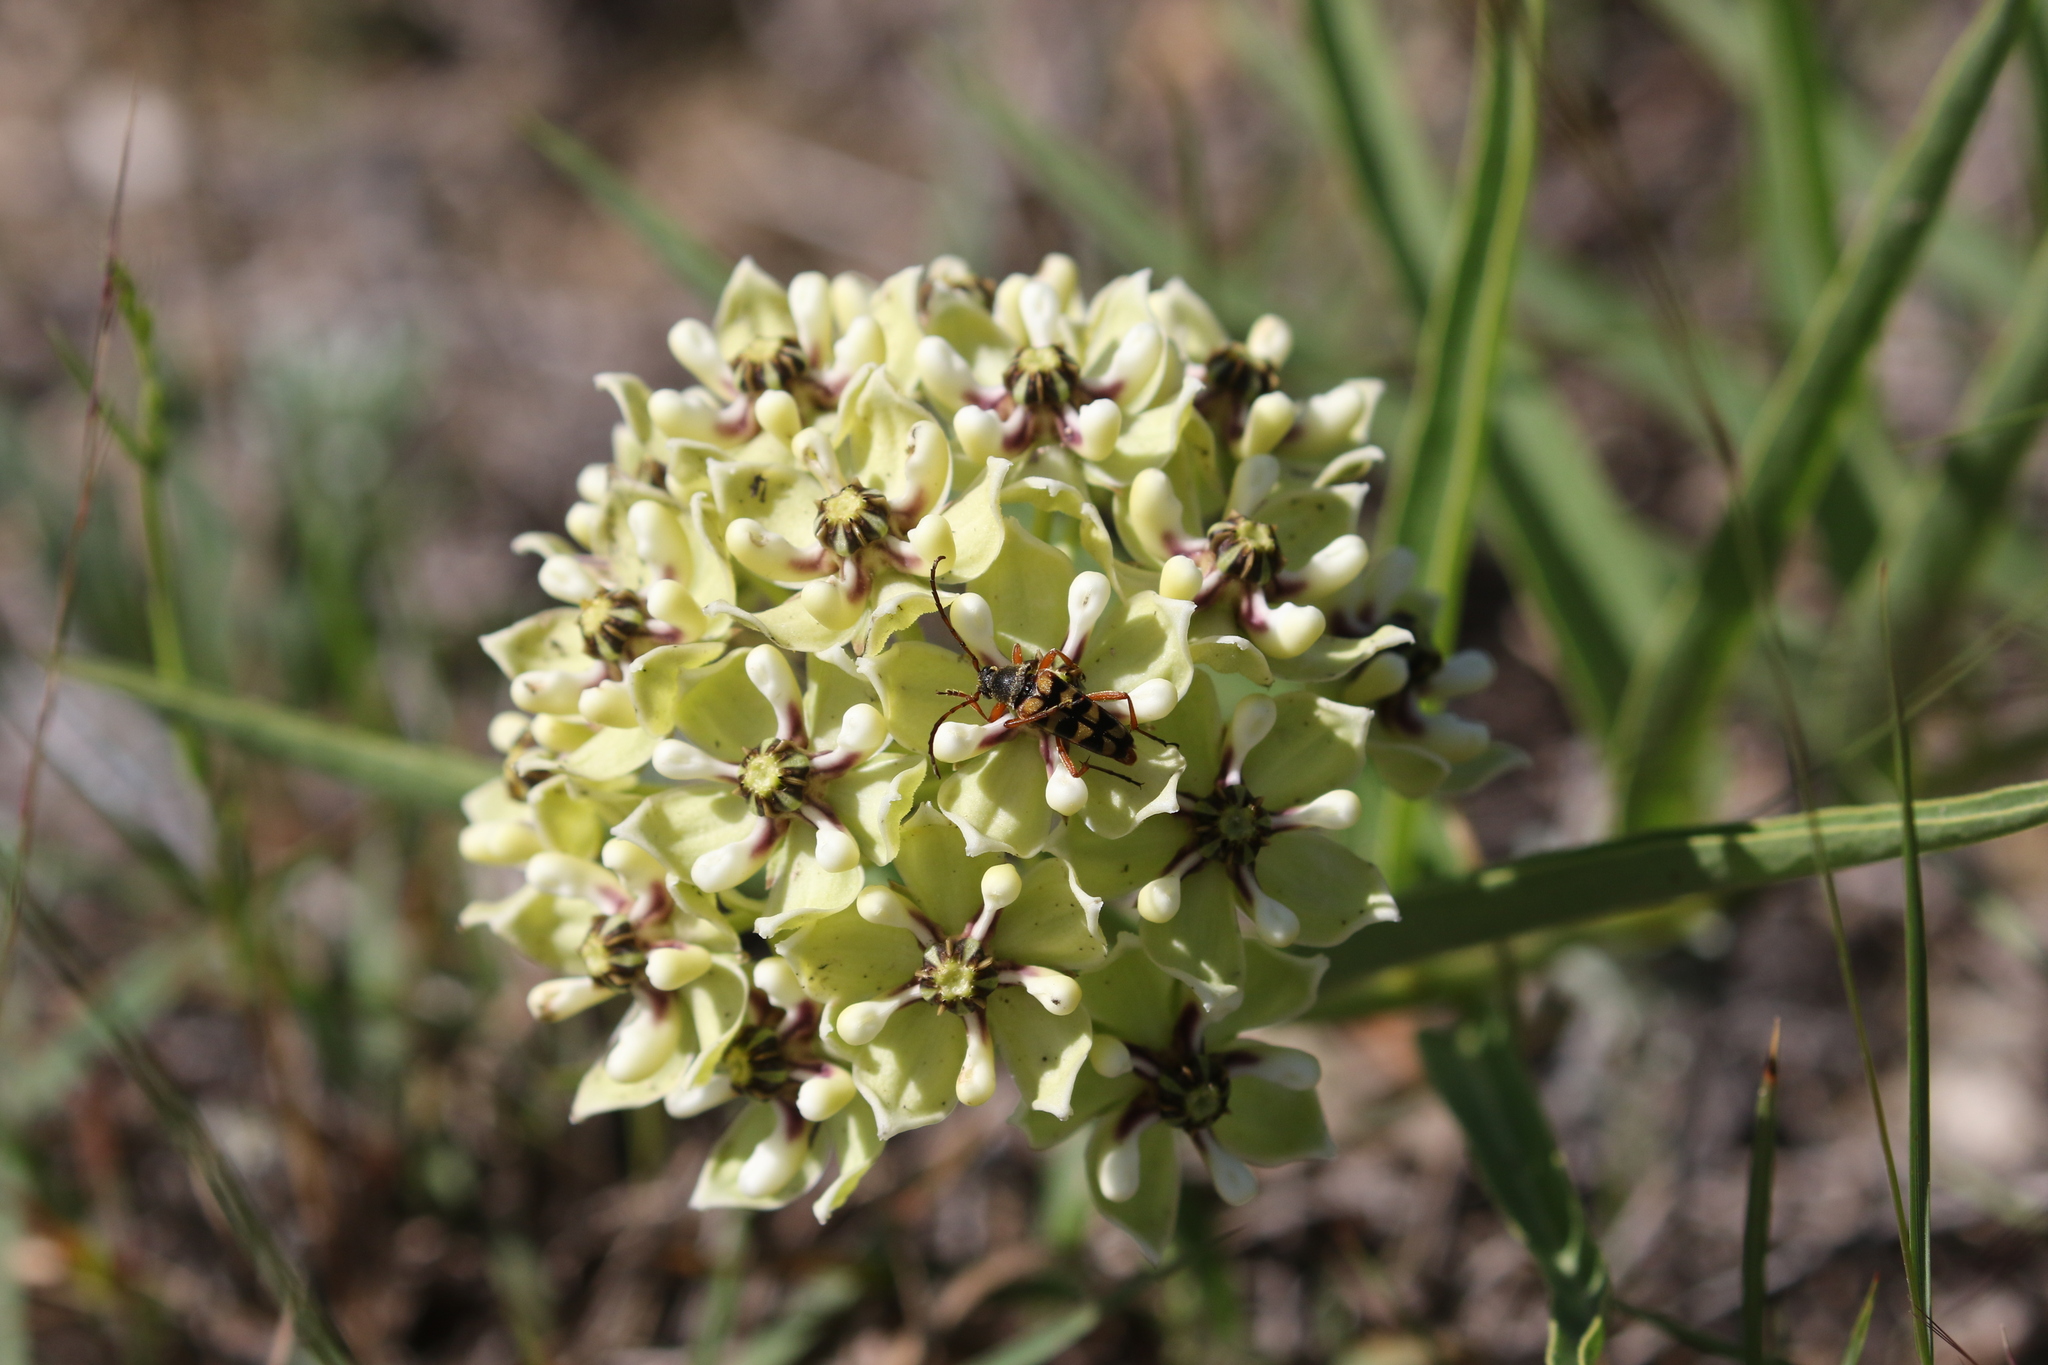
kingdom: Plantae
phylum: Tracheophyta
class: Magnoliopsida
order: Gentianales
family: Apocynaceae
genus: Asclepias
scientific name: Asclepias asperula
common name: Antelope horns
